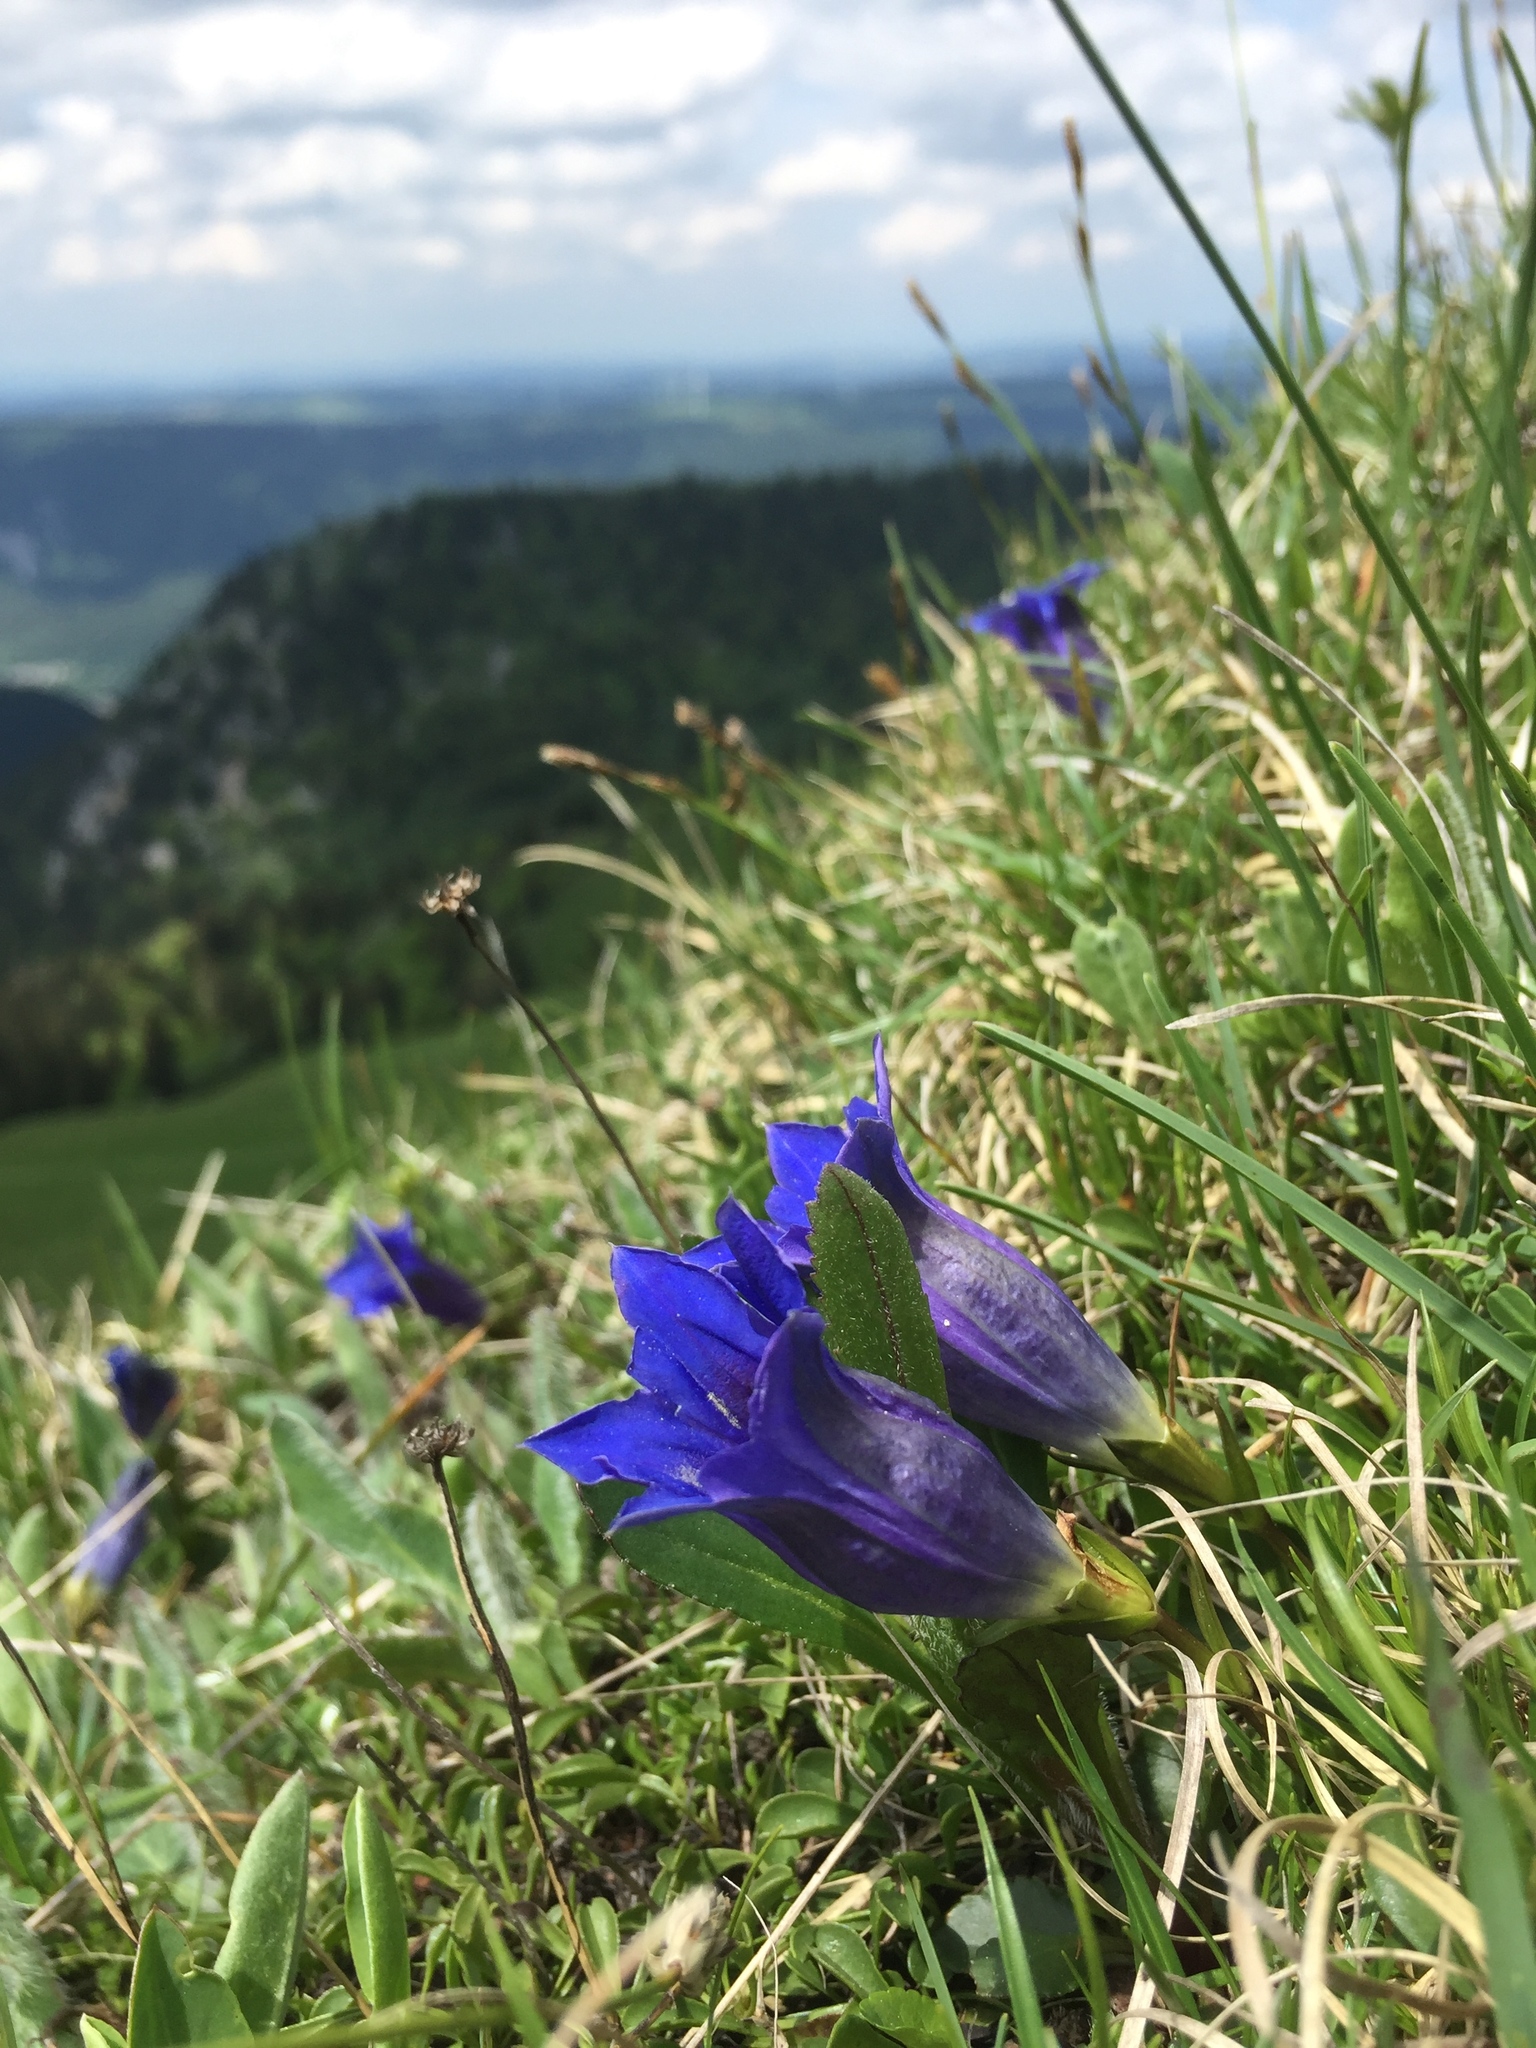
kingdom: Plantae
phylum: Tracheophyta
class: Magnoliopsida
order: Gentianales
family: Gentianaceae
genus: Gentiana
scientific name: Gentiana clusii
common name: Trumpet gentian
